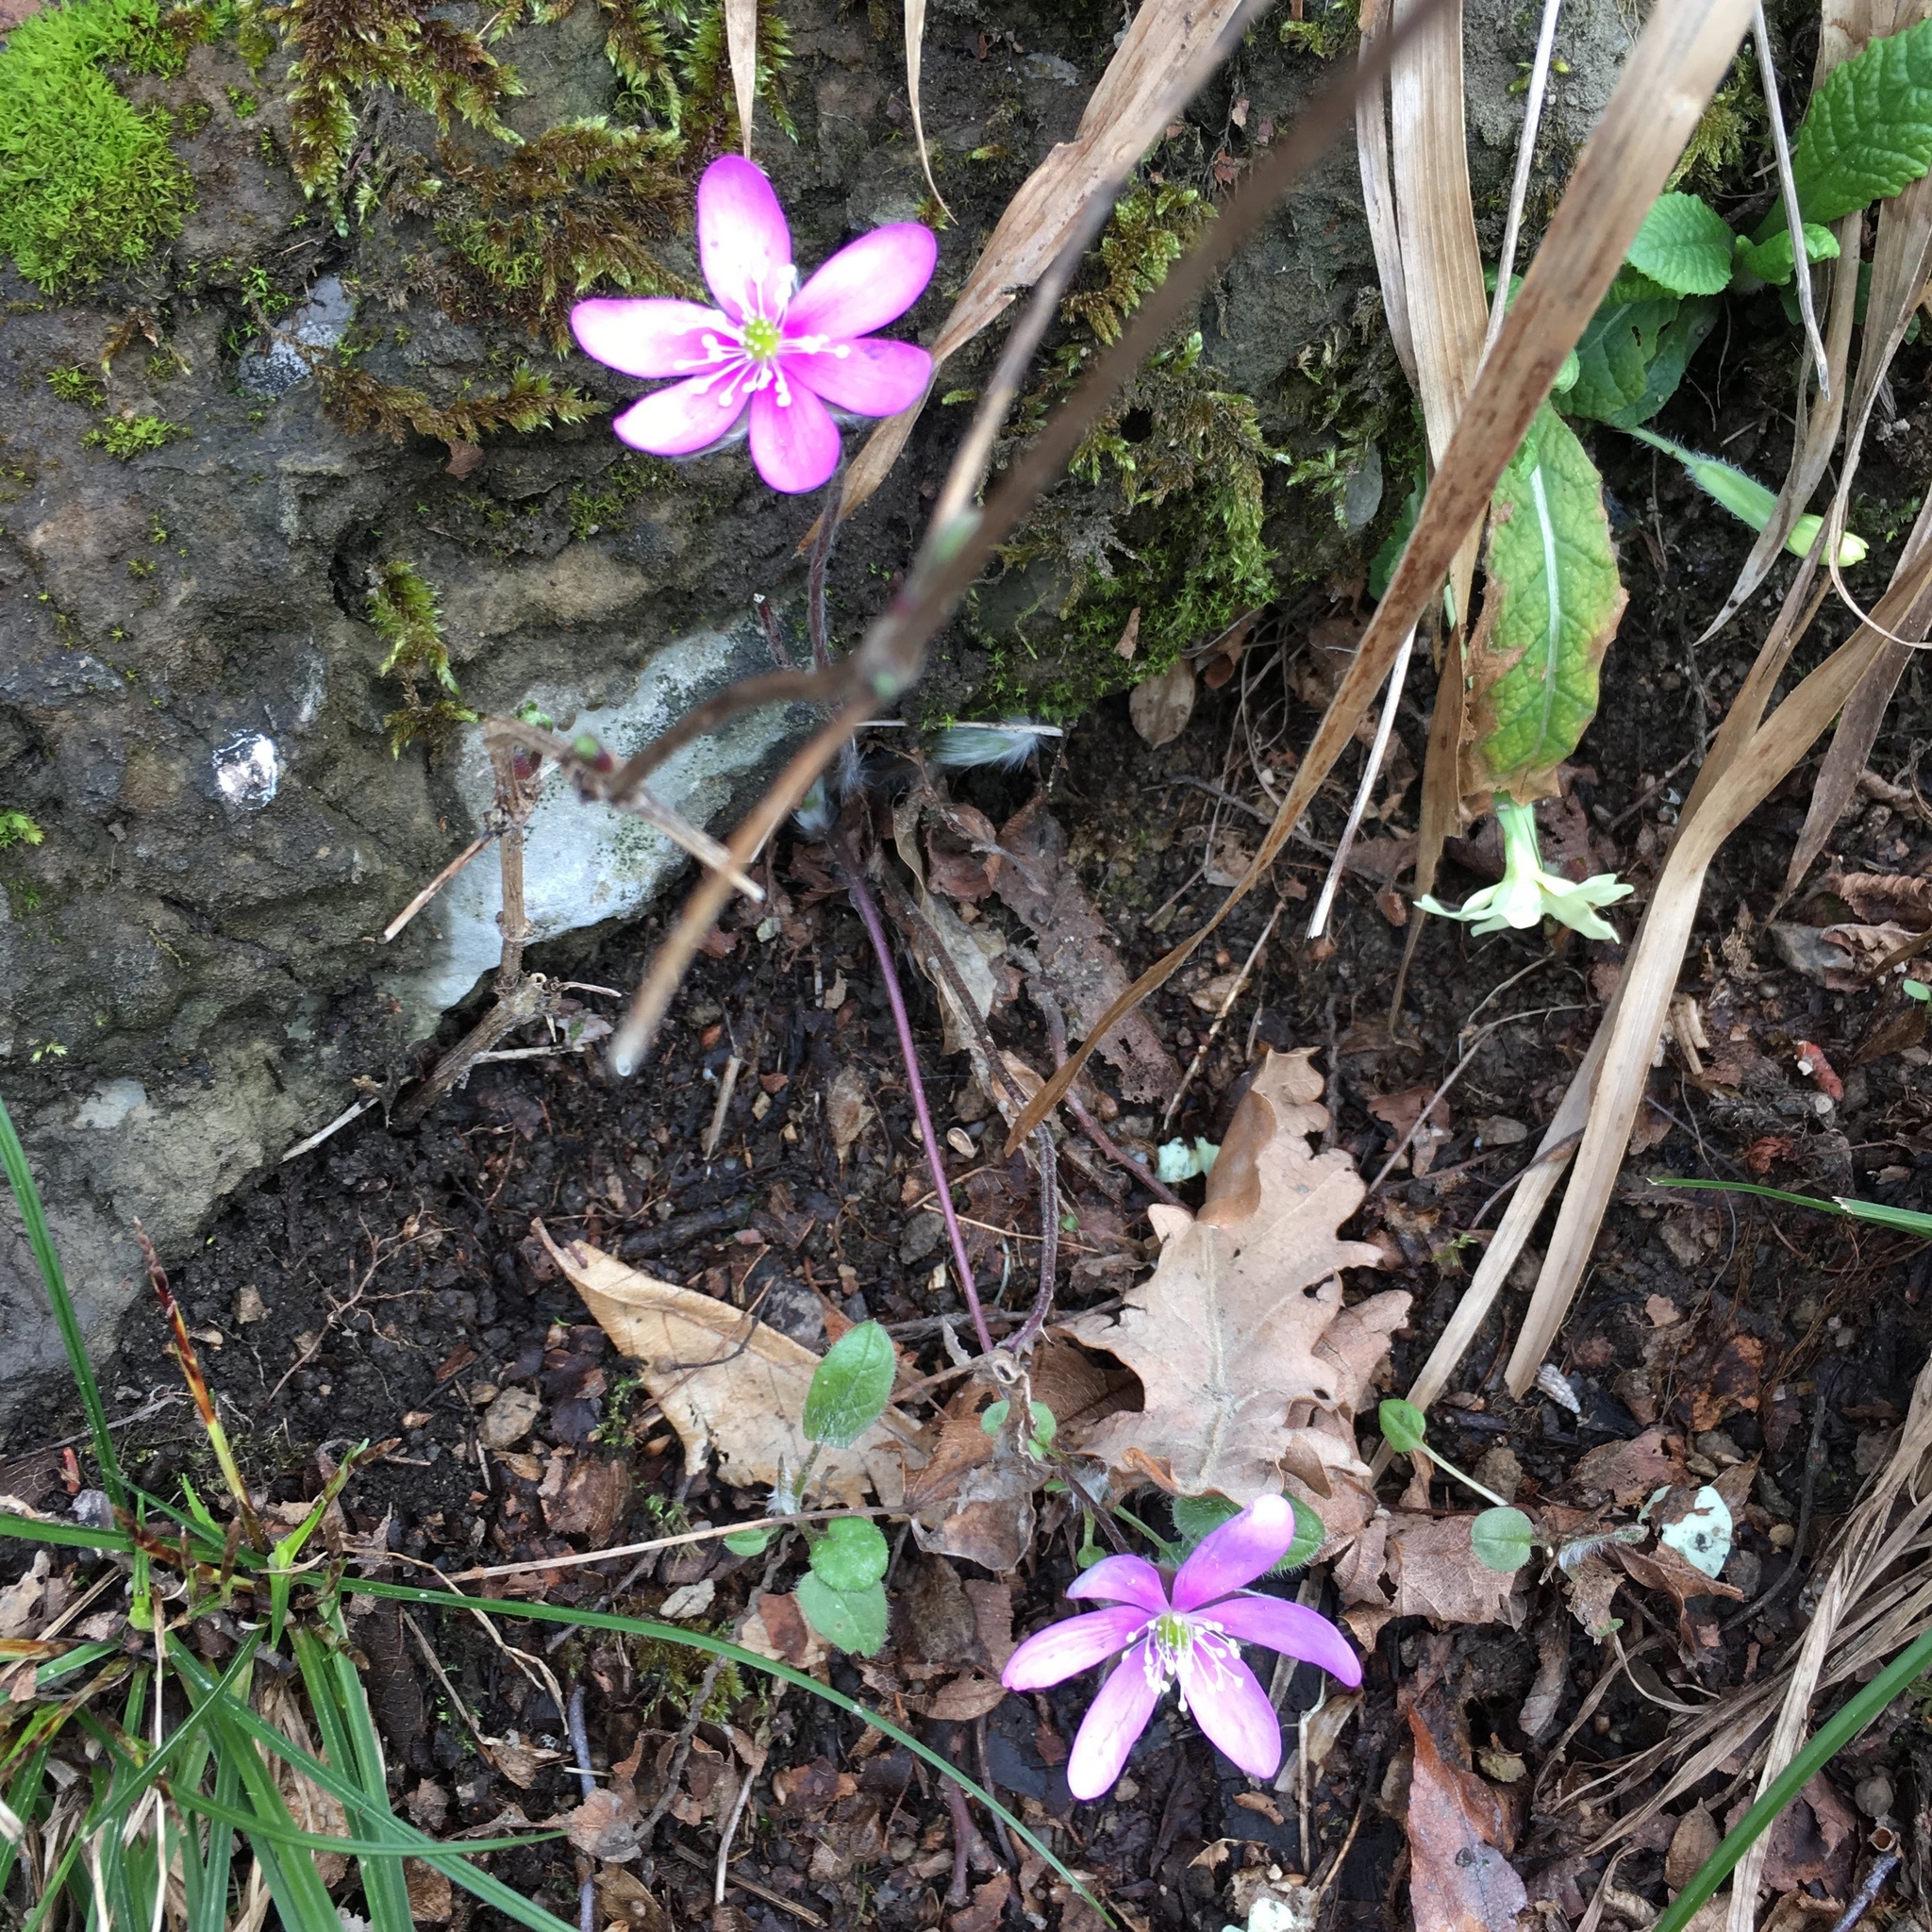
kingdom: Plantae
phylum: Tracheophyta
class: Magnoliopsida
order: Ranunculales
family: Ranunculaceae
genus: Hepatica
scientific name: Hepatica nobilis
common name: Liverleaf
